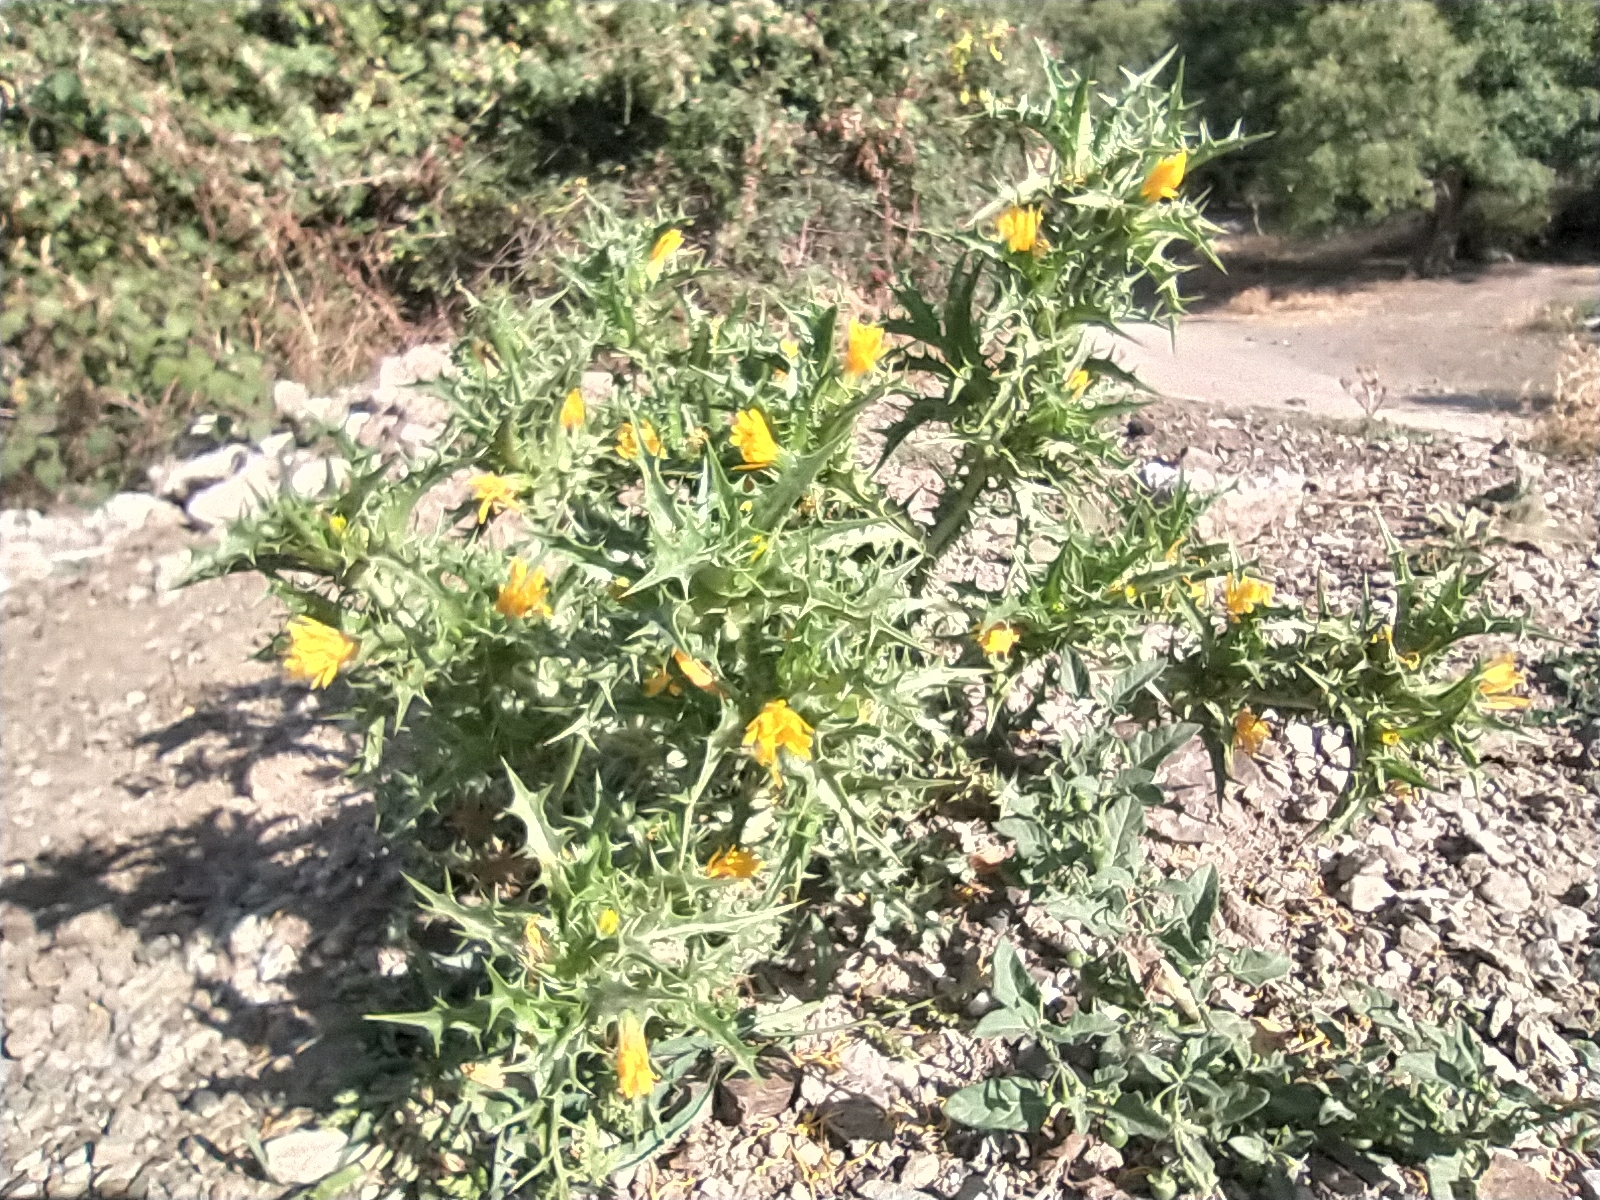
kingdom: Plantae
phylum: Tracheophyta
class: Magnoliopsida
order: Asterales
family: Asteraceae
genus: Scolymus
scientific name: Scolymus hispanicus
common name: Golden thistle
